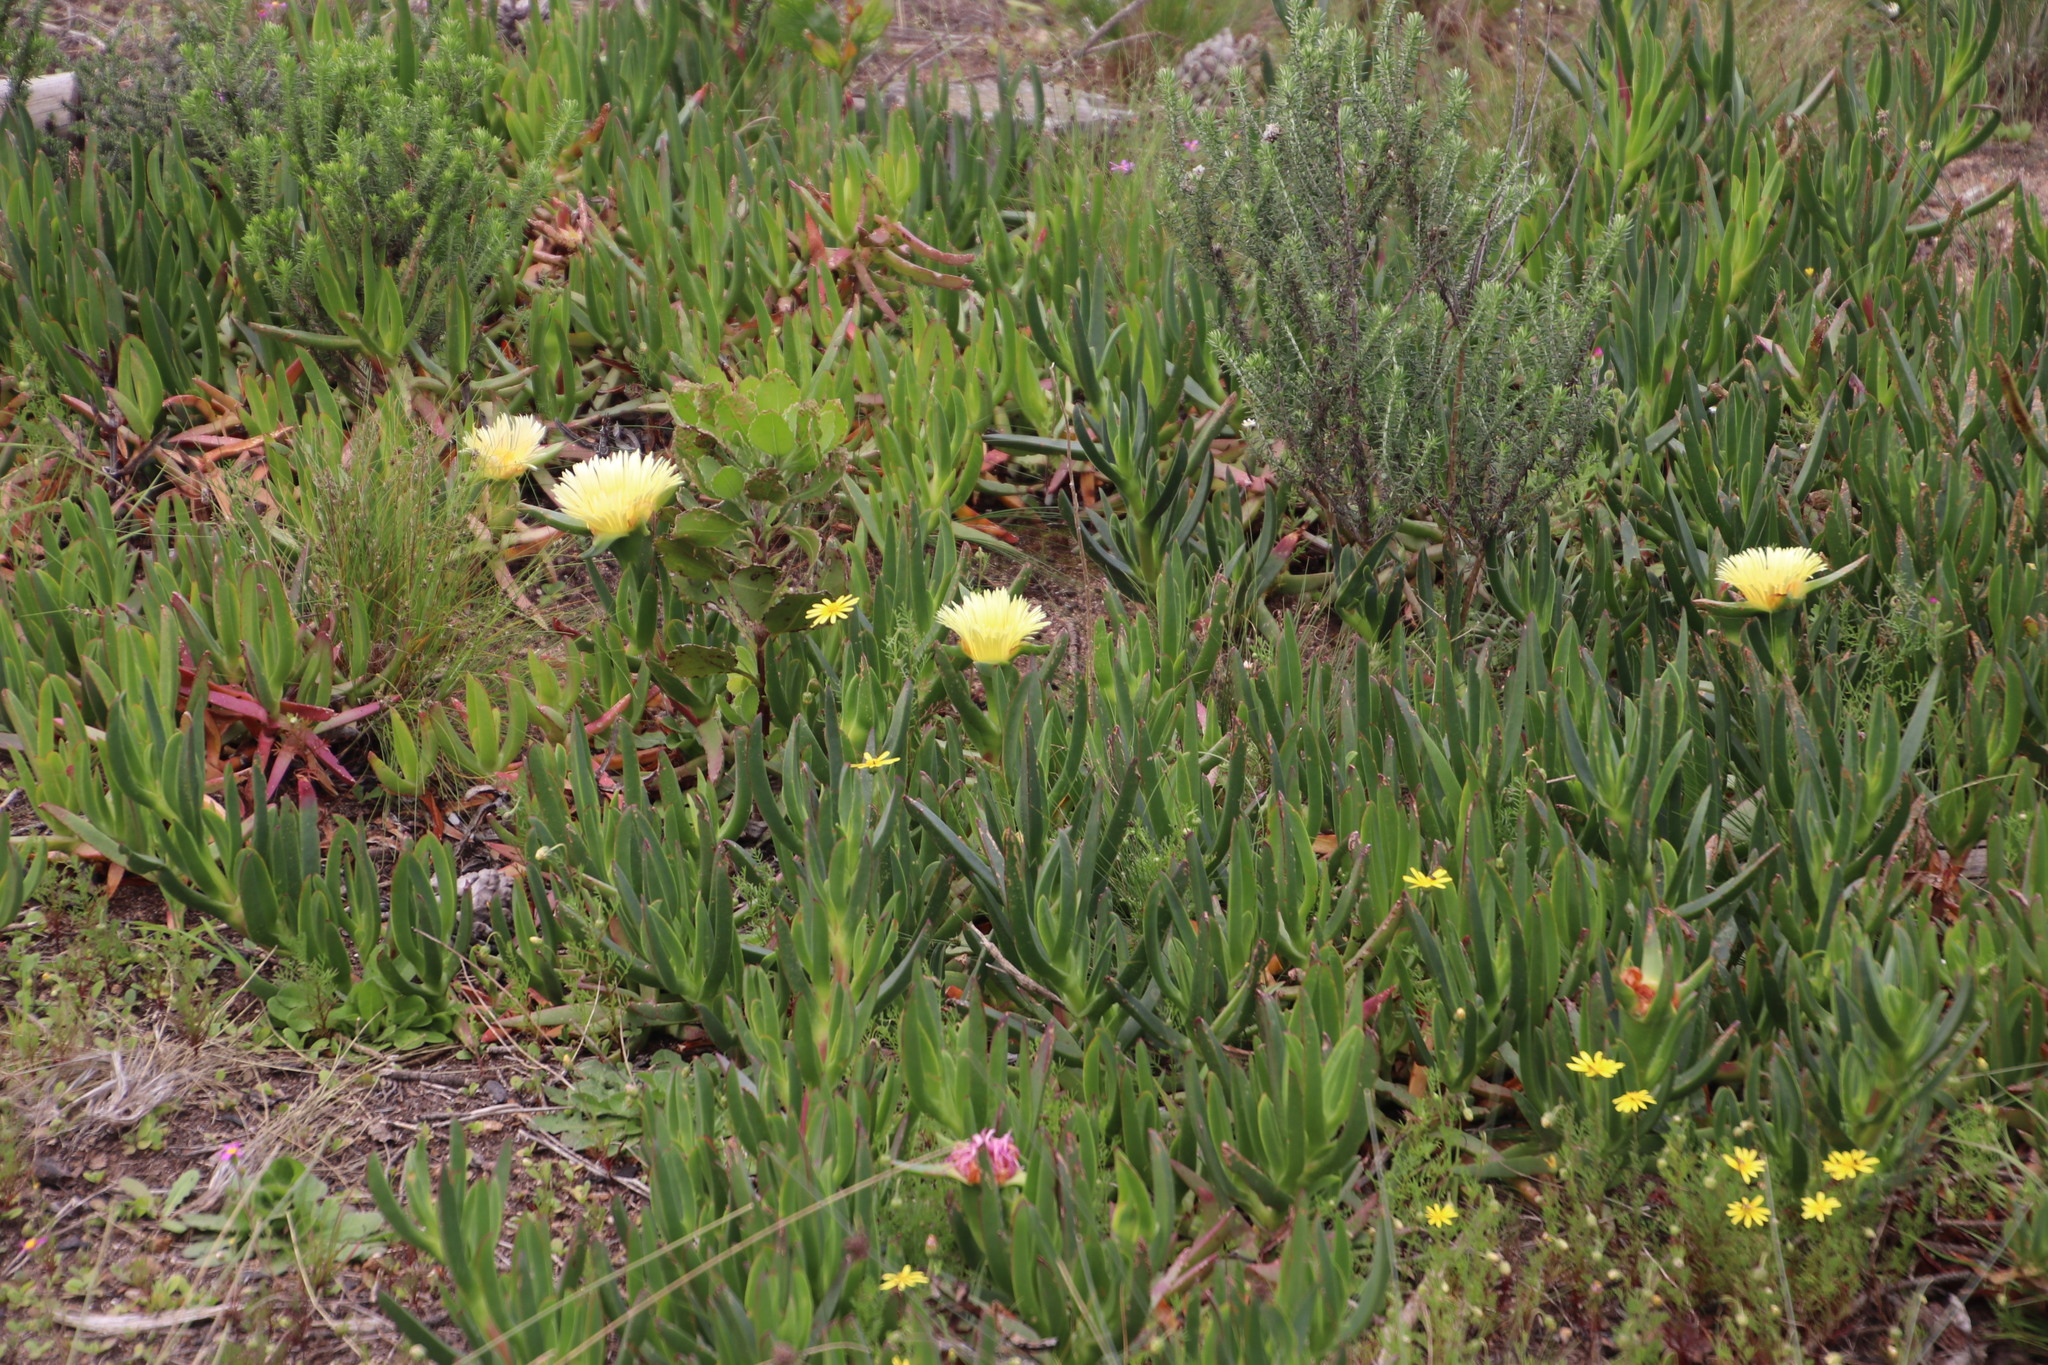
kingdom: Plantae
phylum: Tracheophyta
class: Magnoliopsida
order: Caryophyllales
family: Aizoaceae
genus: Carpobrotus
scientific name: Carpobrotus edulis
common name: Hottentot-fig
